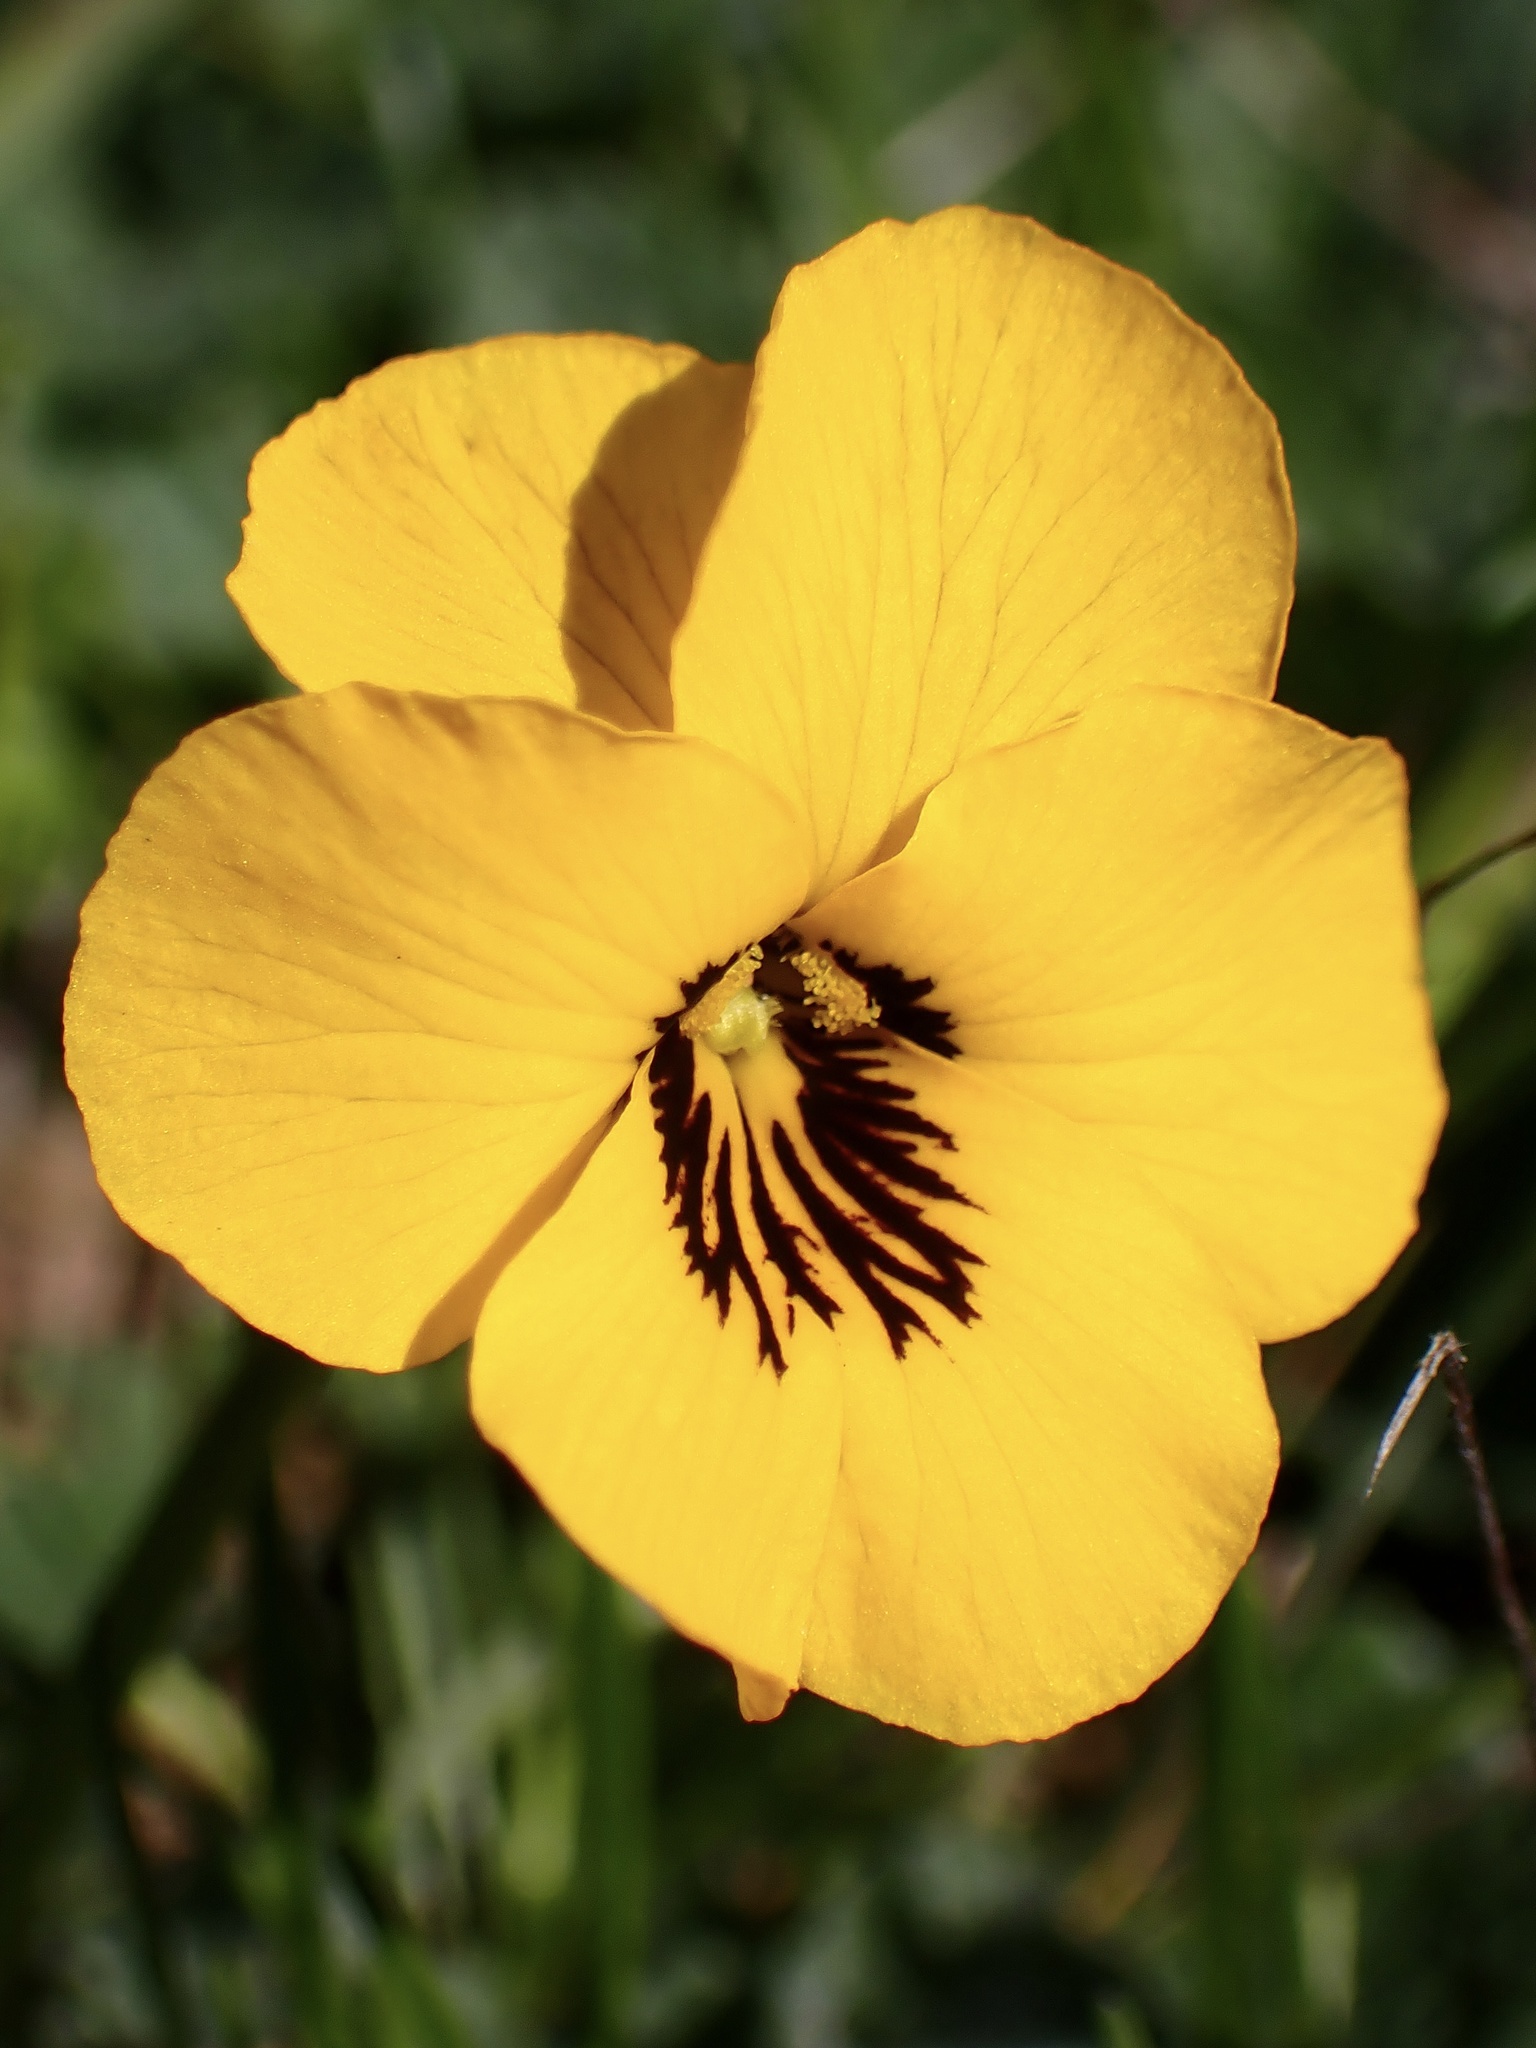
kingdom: Plantae
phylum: Tracheophyta
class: Magnoliopsida
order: Malpighiales
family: Violaceae
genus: Viola
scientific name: Viola pedunculata
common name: California golden violet
